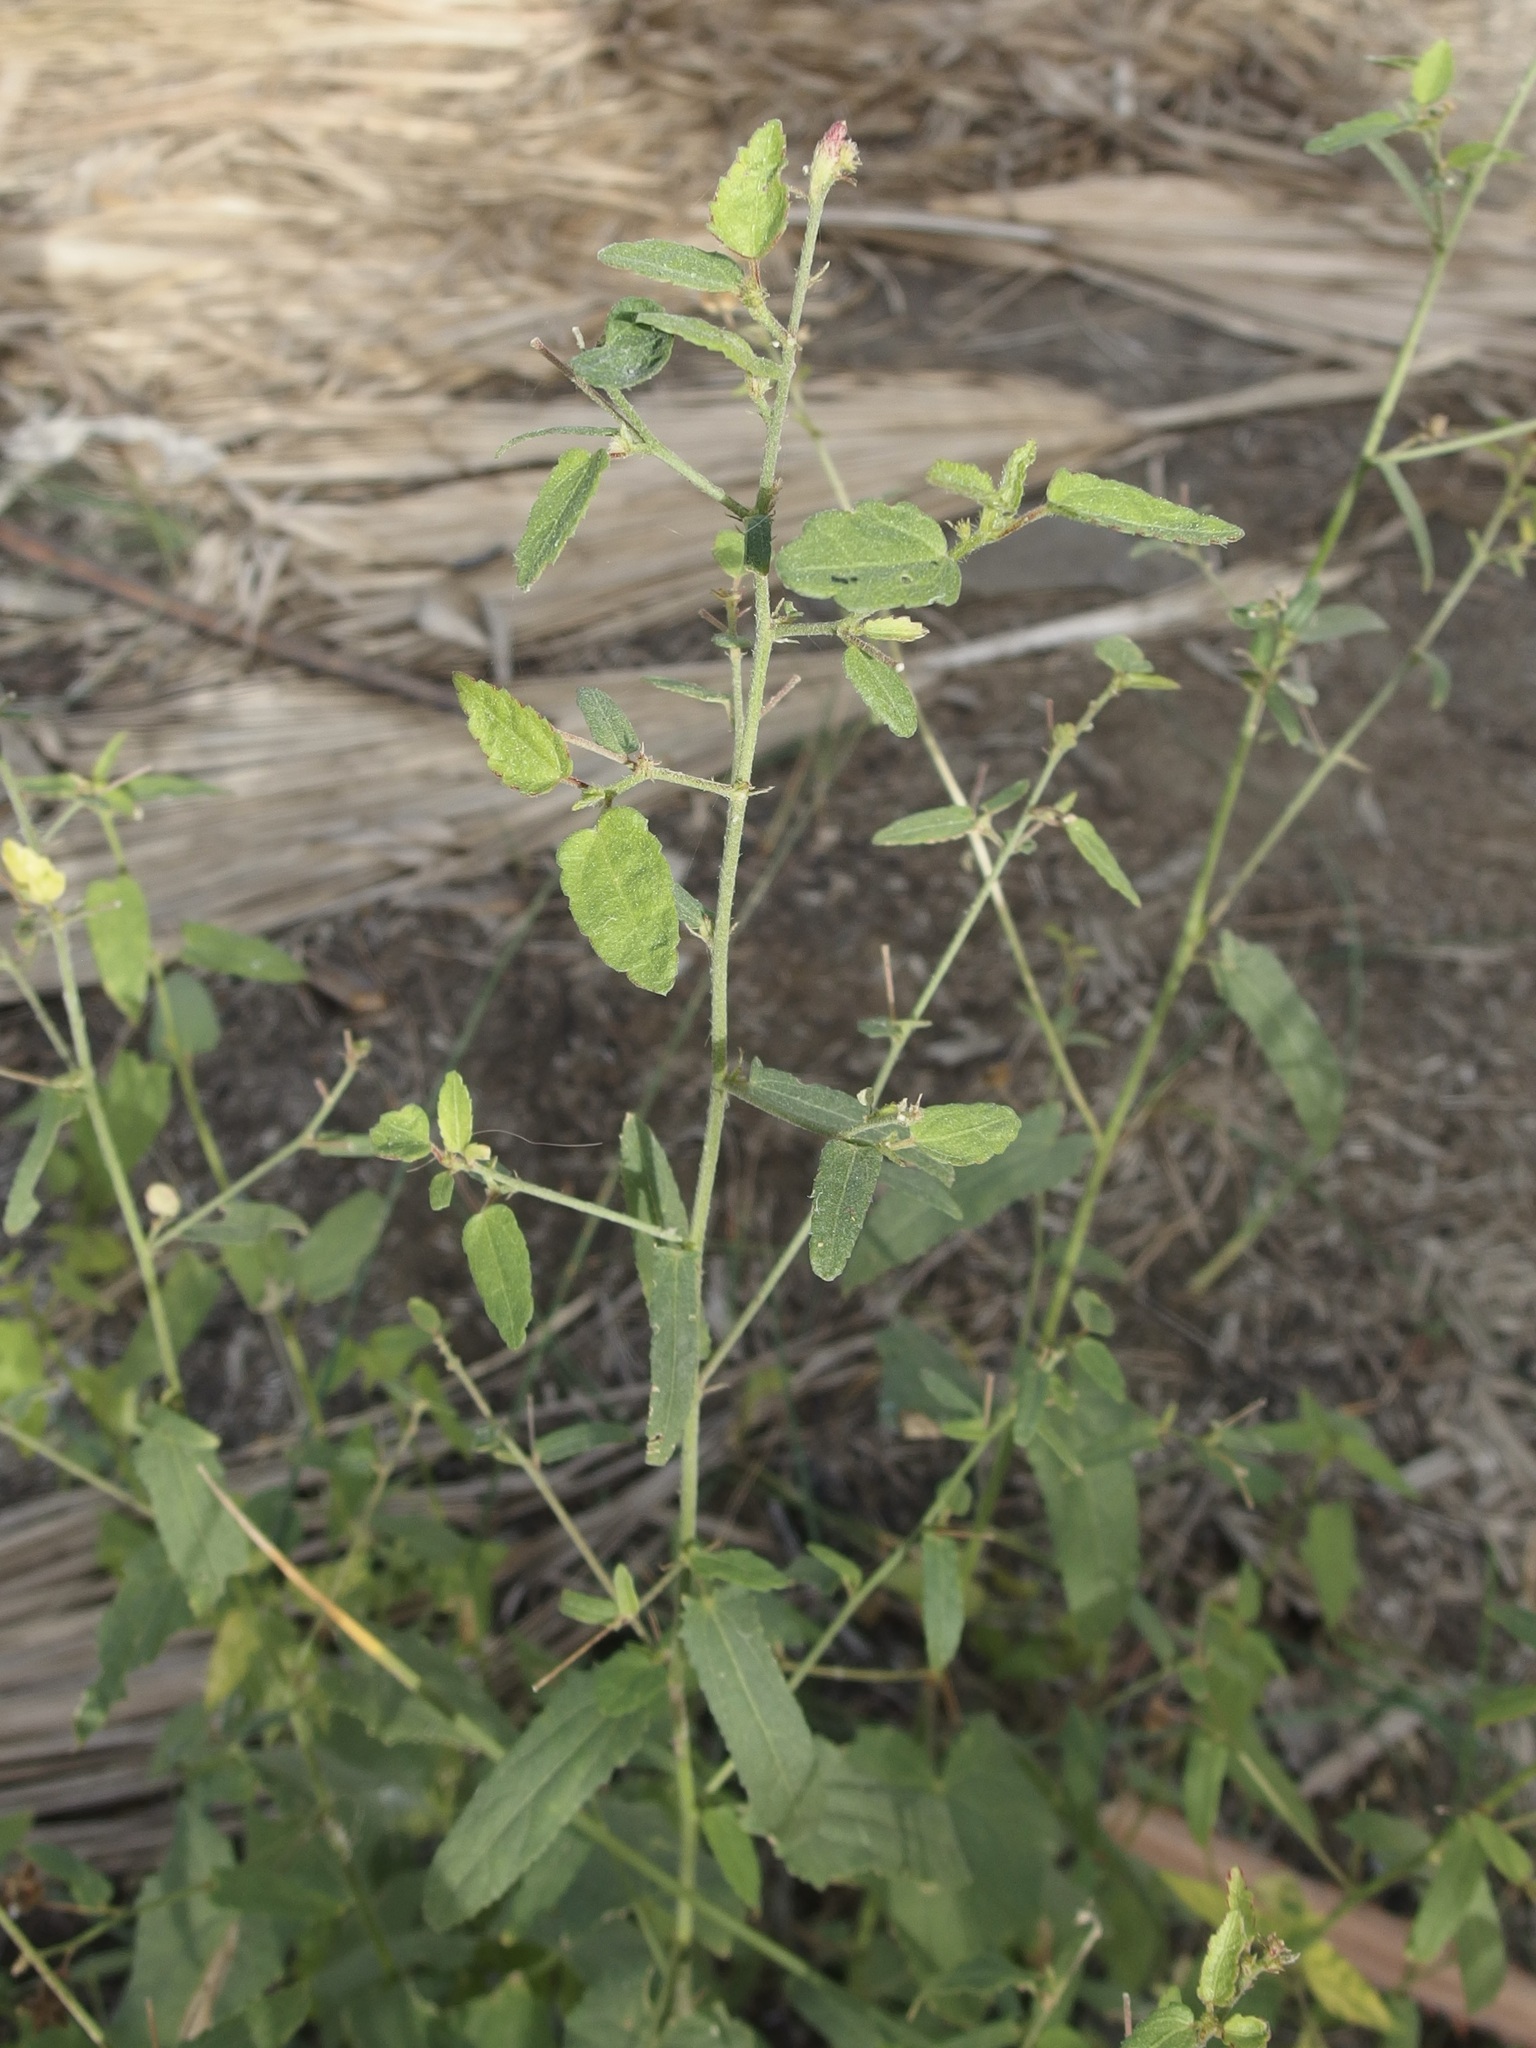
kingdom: Plantae
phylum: Tracheophyta
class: Magnoliopsida
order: Malvales
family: Malvaceae
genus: Kosteletzkya
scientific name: Kosteletzkya depressa
